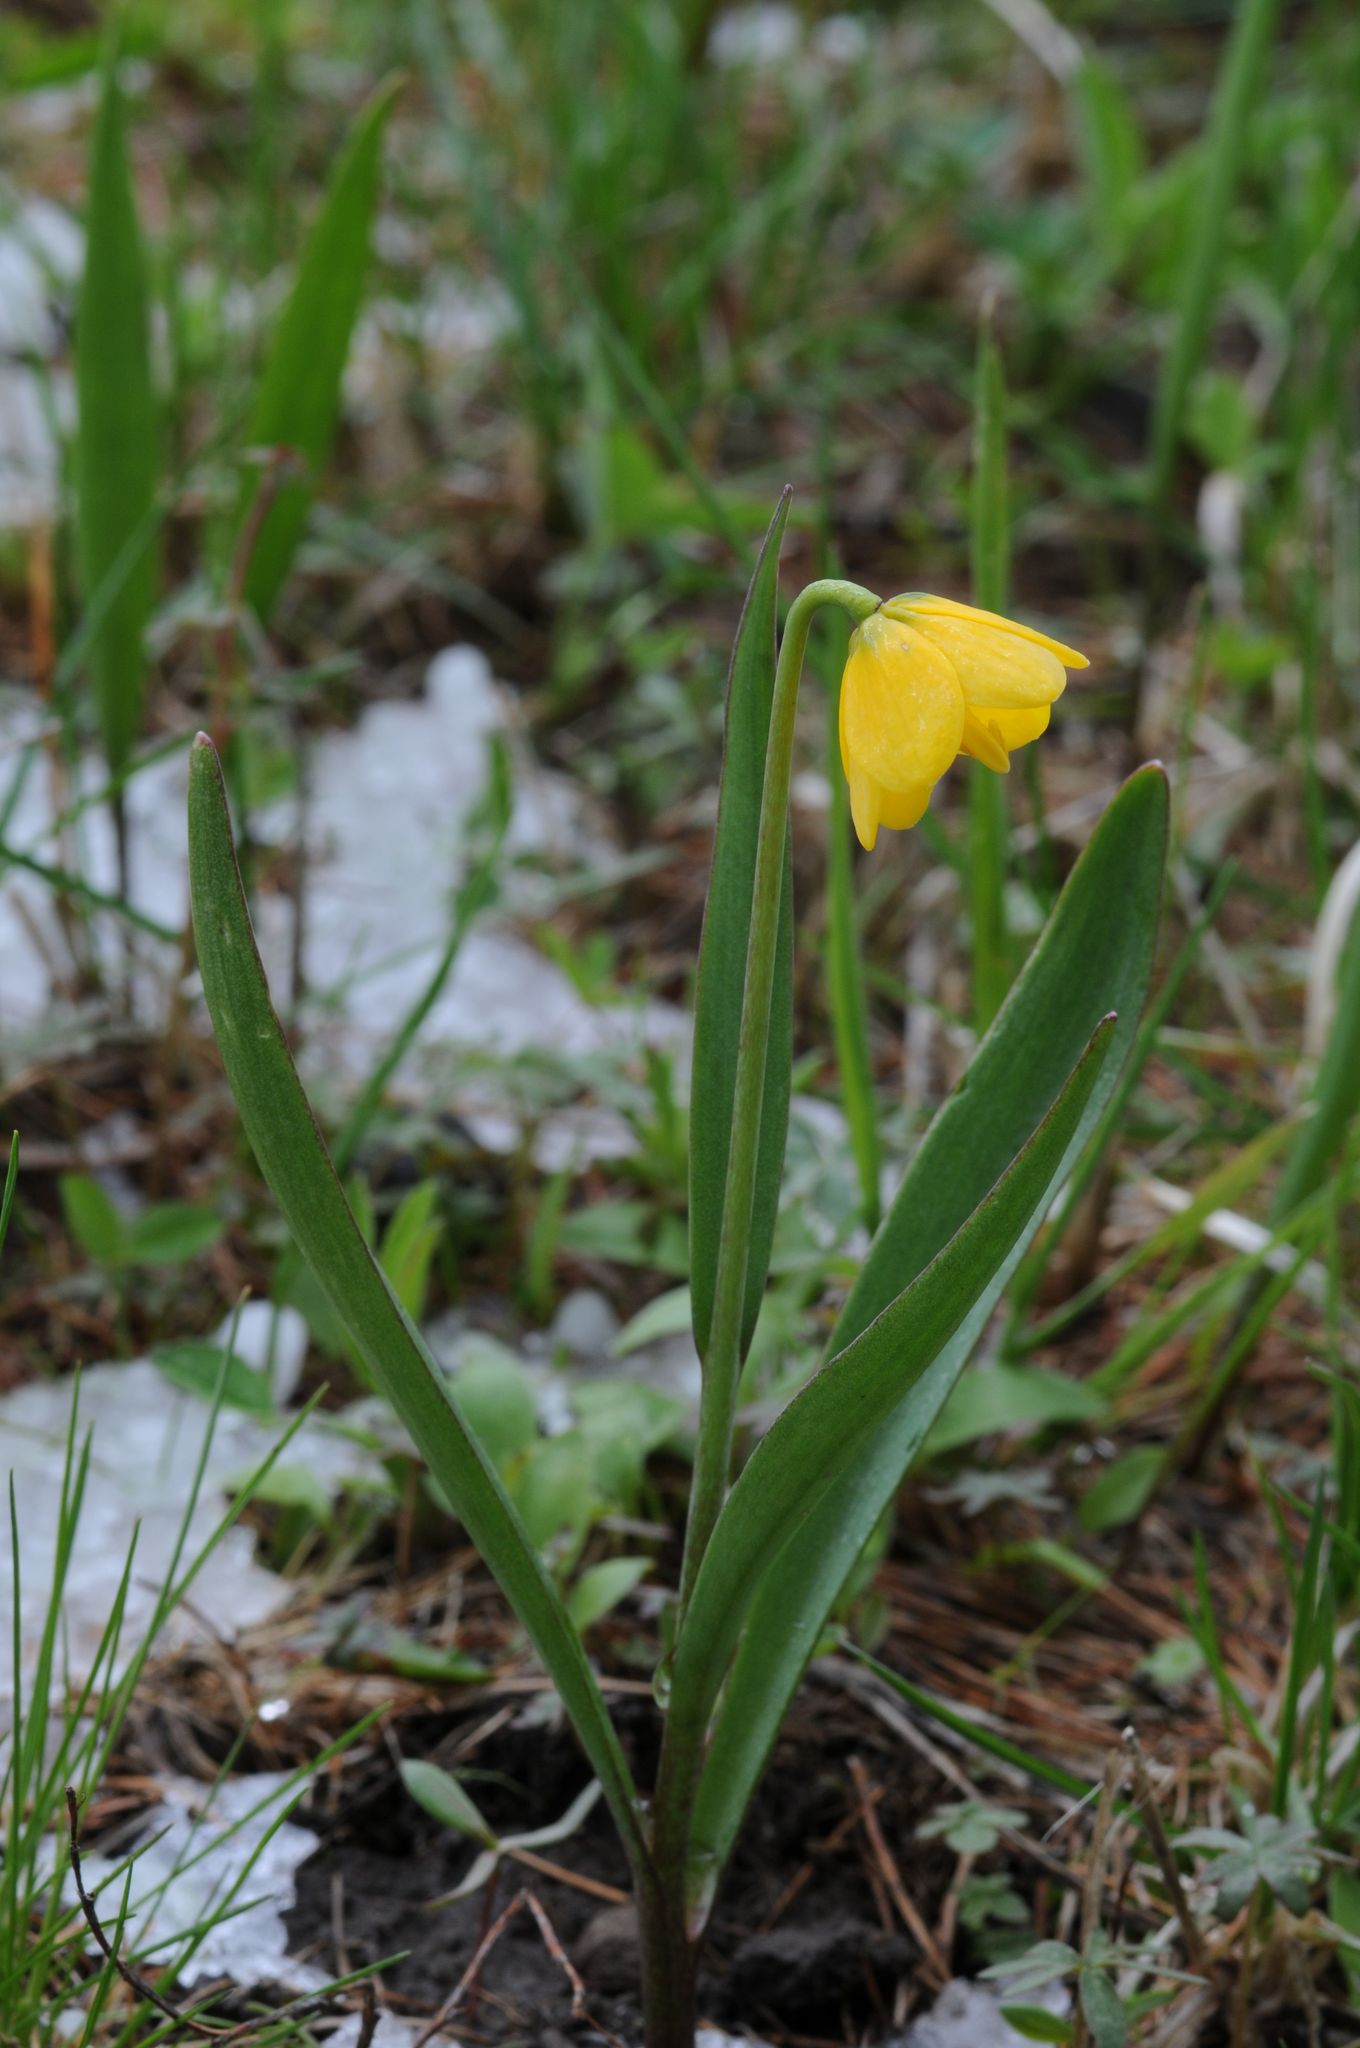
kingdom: Plantae
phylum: Tracheophyta
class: Liliopsida
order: Liliales
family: Liliaceae
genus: Fritillaria
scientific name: Fritillaria pudica
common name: Yellow fritillary
